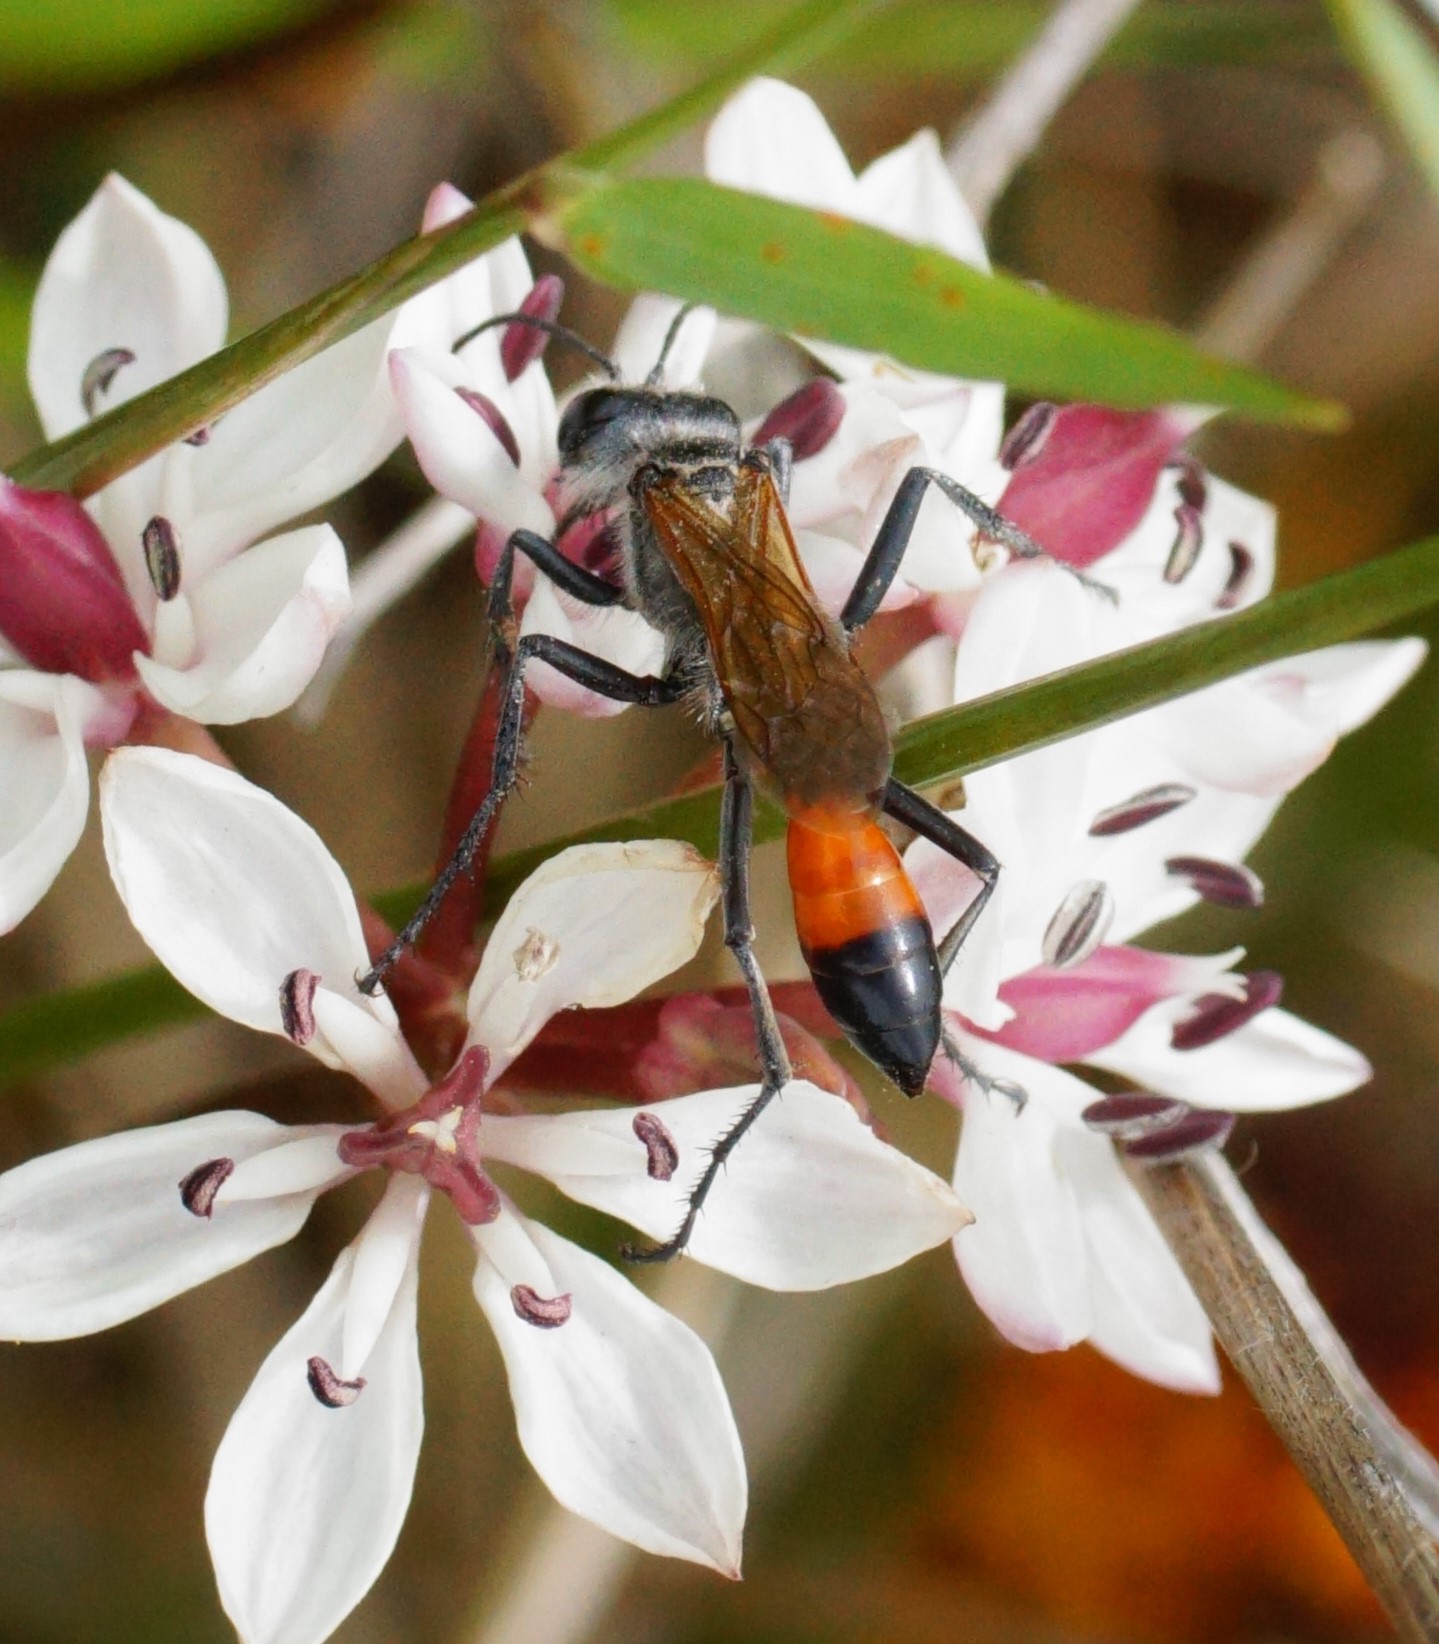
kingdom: Animalia
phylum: Arthropoda
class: Insecta
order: Hymenoptera
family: Sphecidae
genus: Podalonia
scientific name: Podalonia tydei
